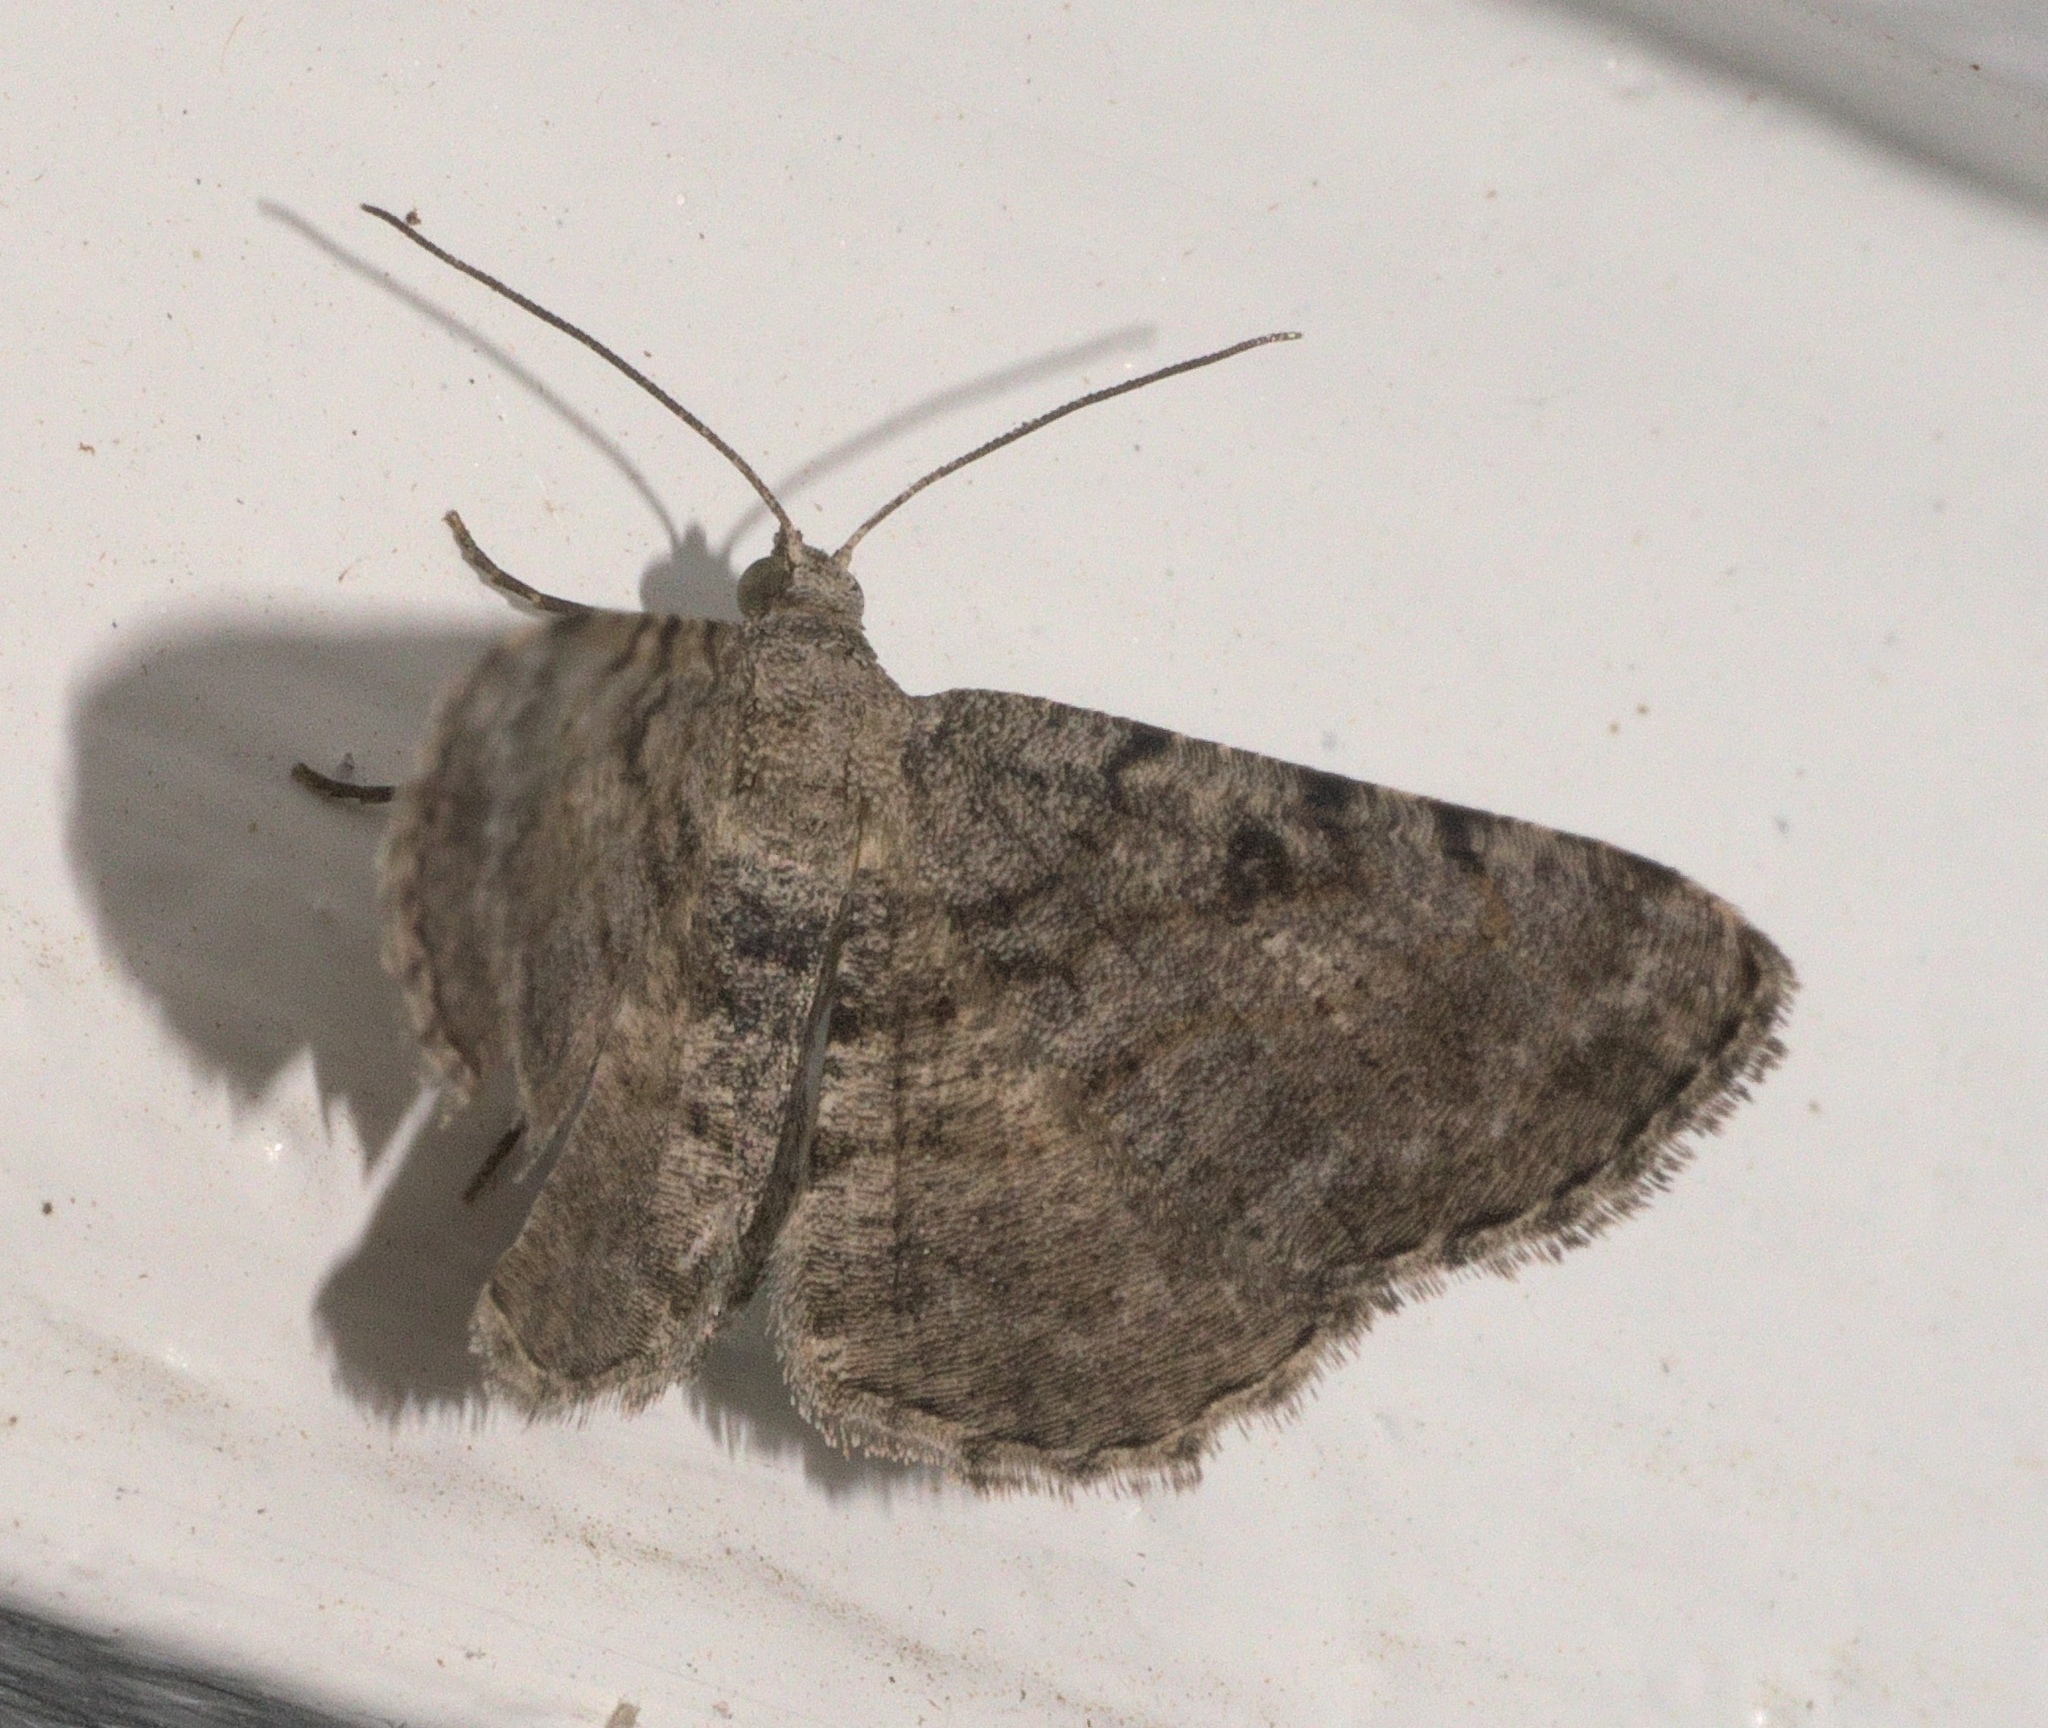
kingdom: Animalia
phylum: Arthropoda
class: Insecta
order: Lepidoptera
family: Geometridae
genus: Digrammia
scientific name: Digrammia gnophosaria
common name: Hollow-spotted angle
